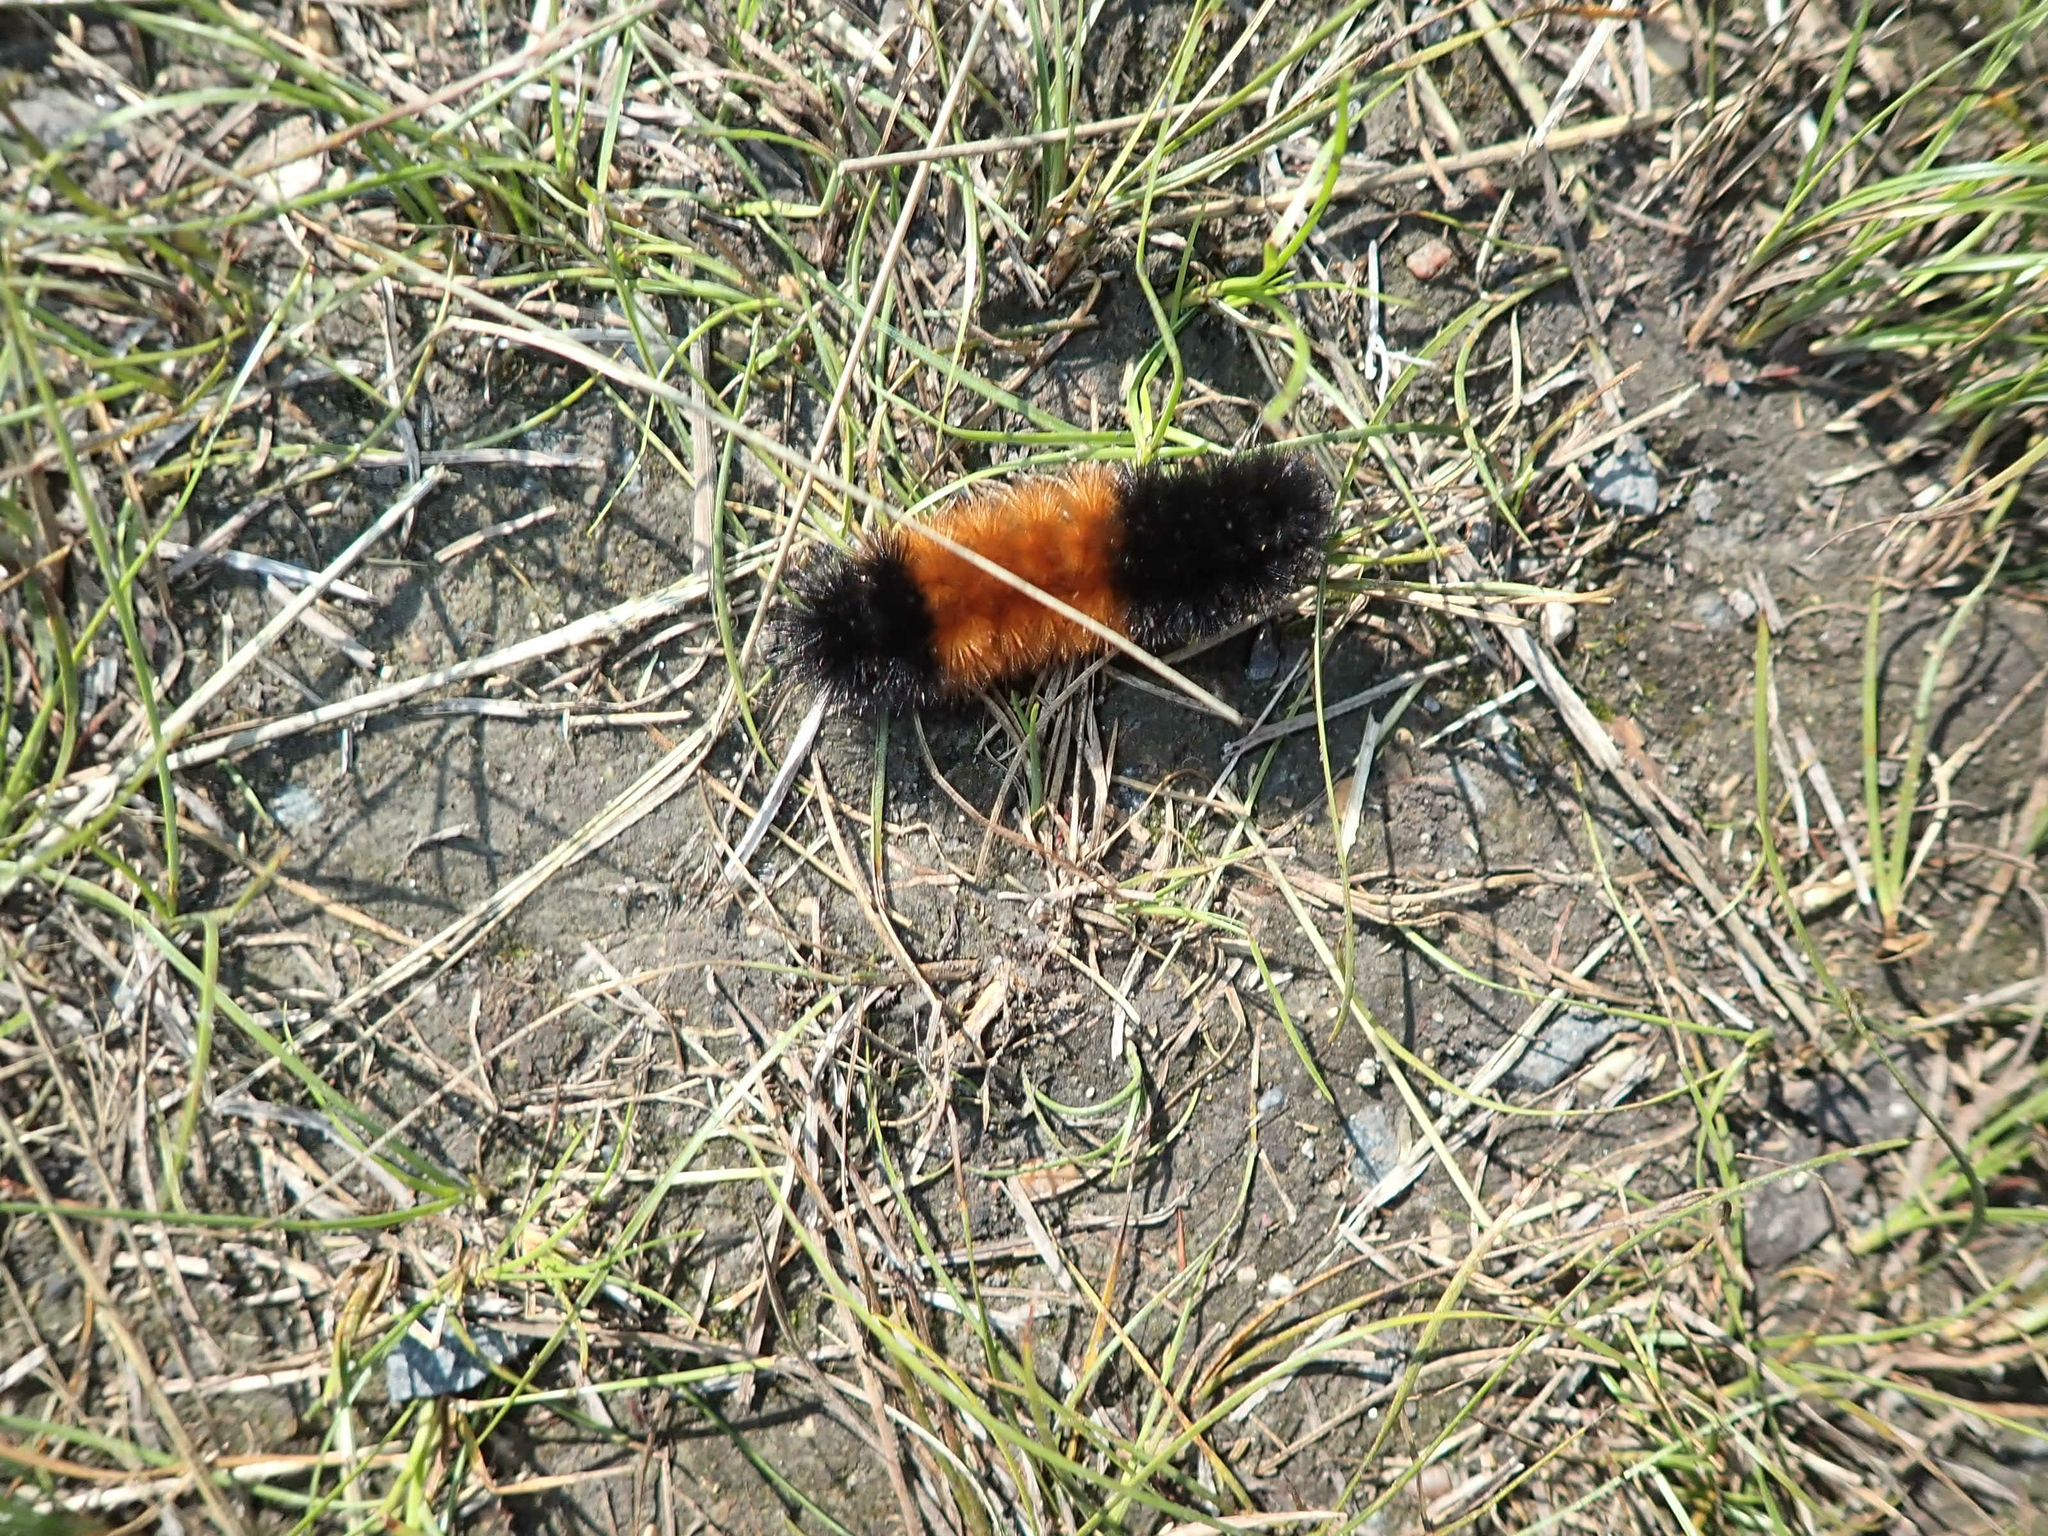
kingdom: Animalia
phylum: Arthropoda
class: Insecta
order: Lepidoptera
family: Erebidae
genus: Pyrrharctia
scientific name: Pyrrharctia isabella
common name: Isabella tiger moth
